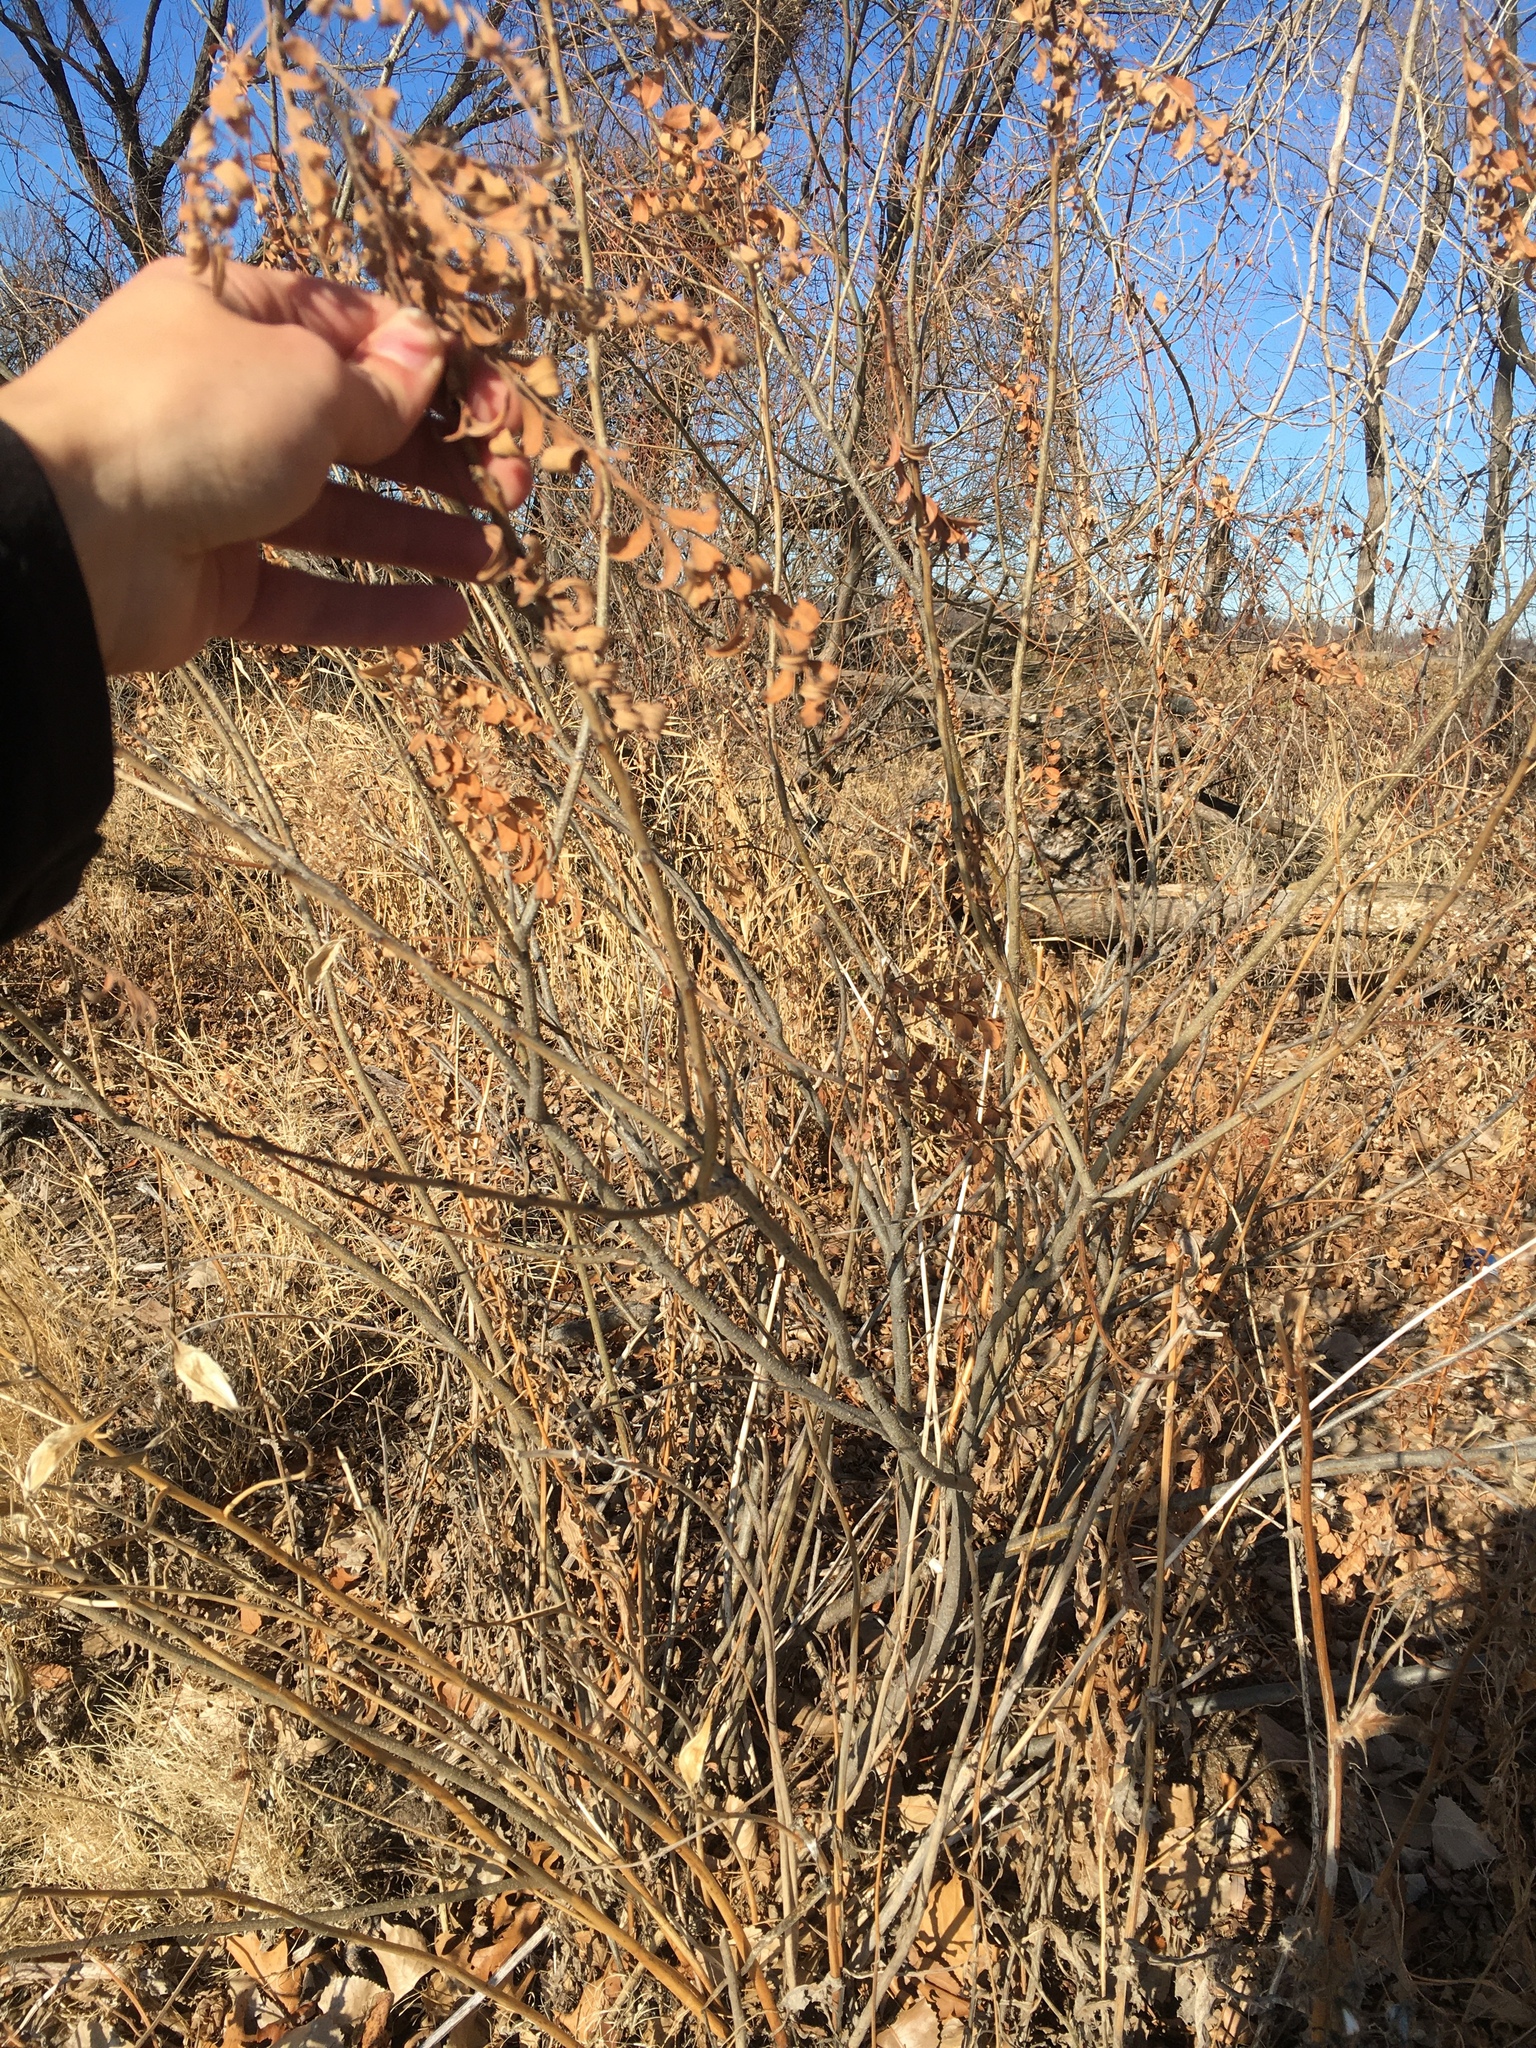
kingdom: Plantae
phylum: Tracheophyta
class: Magnoliopsida
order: Fabales
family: Fabaceae
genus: Amorpha
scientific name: Amorpha fruticosa
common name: False indigo
